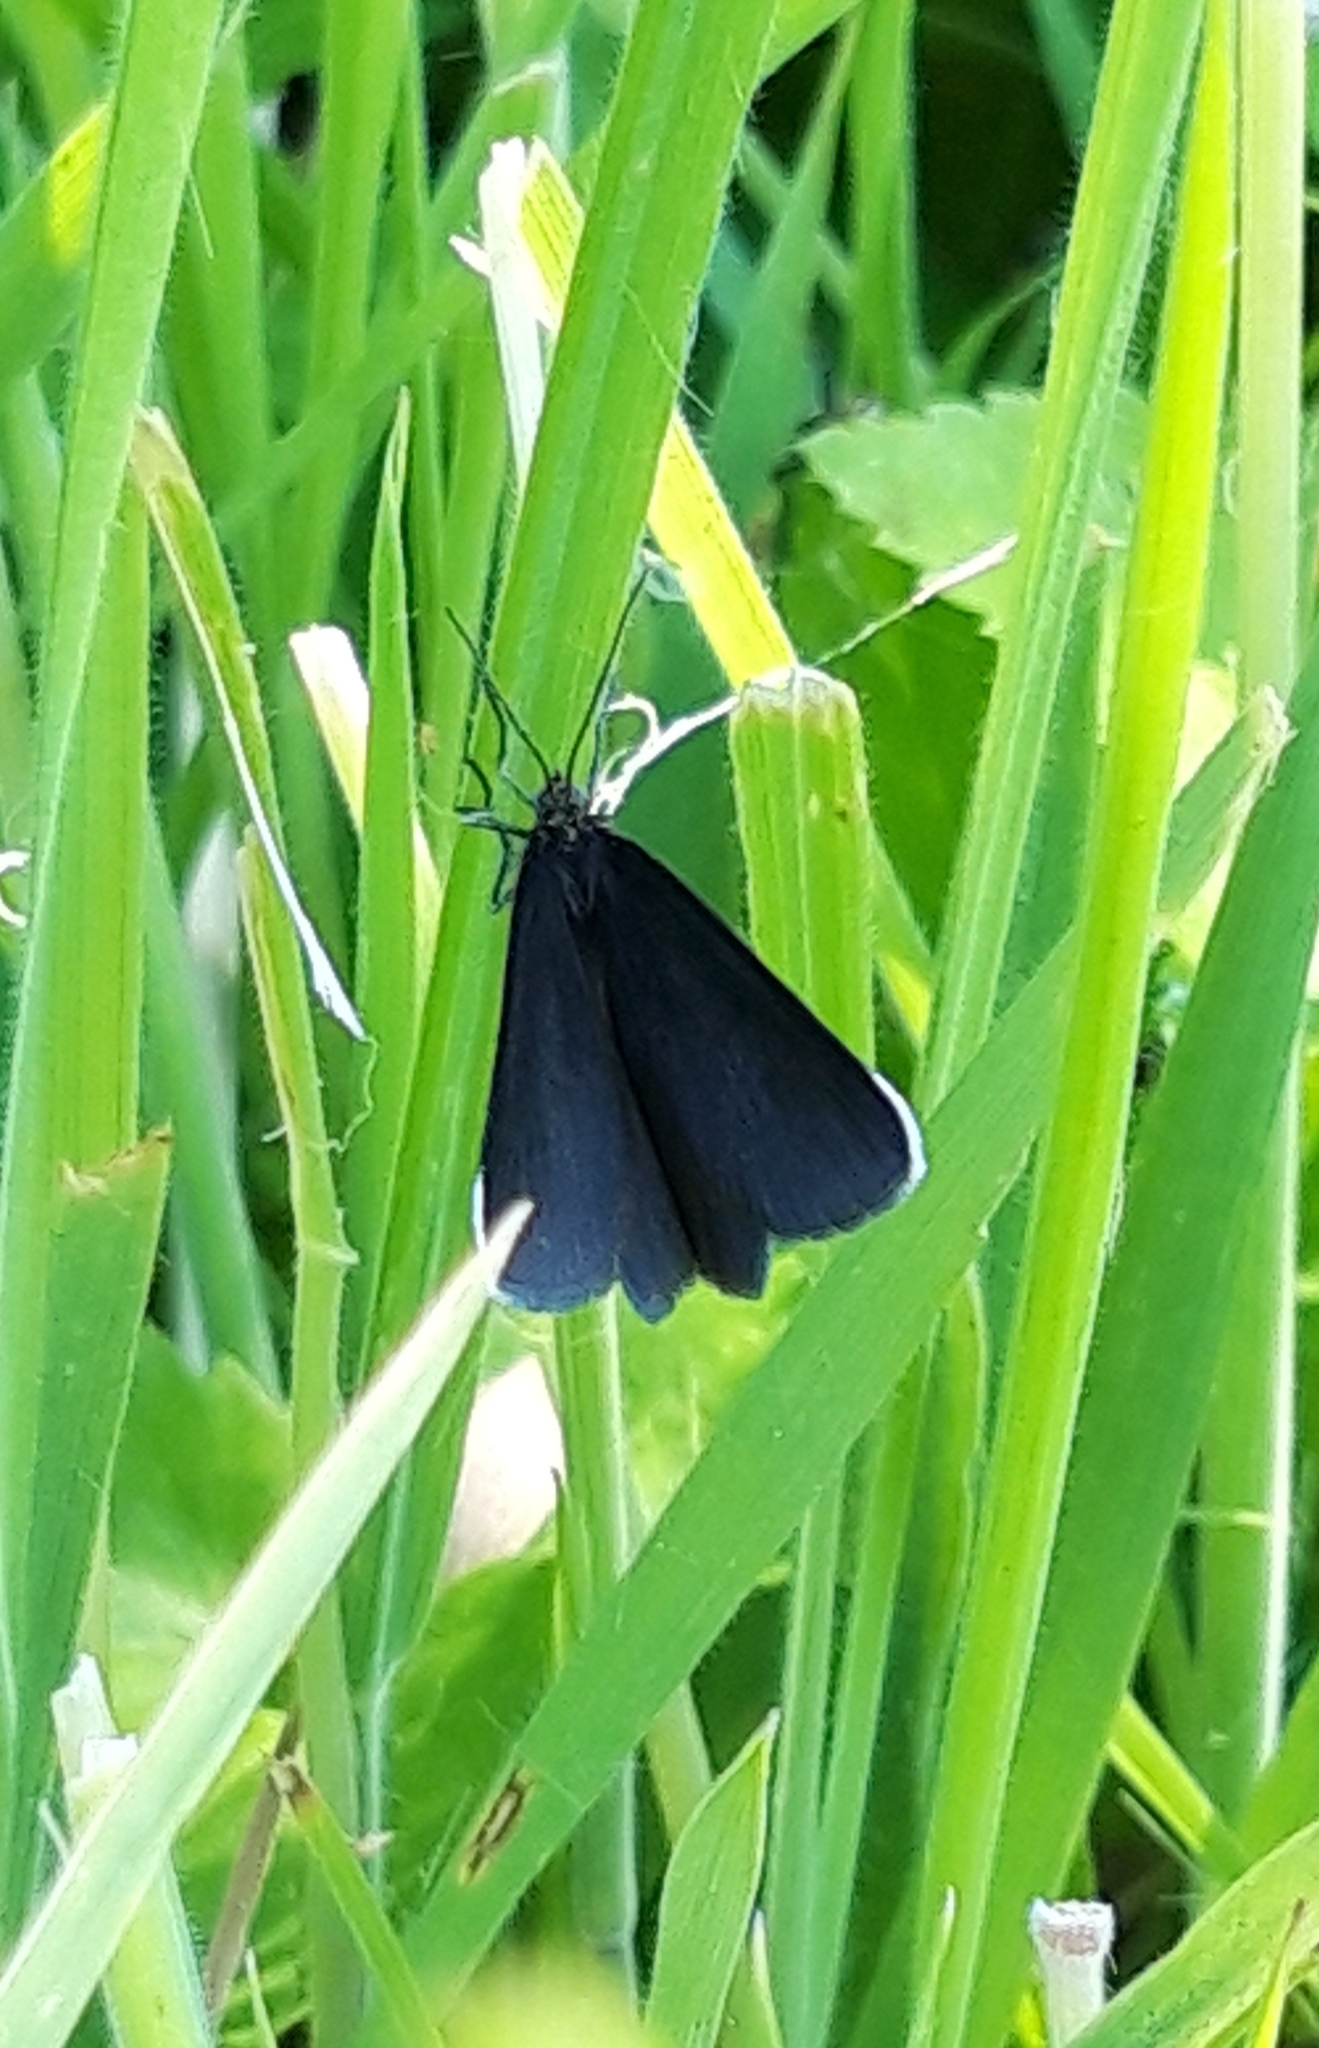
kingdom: Animalia
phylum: Arthropoda
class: Insecta
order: Lepidoptera
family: Geometridae
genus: Odezia
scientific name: Odezia atrata
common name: Chimney sweeper
